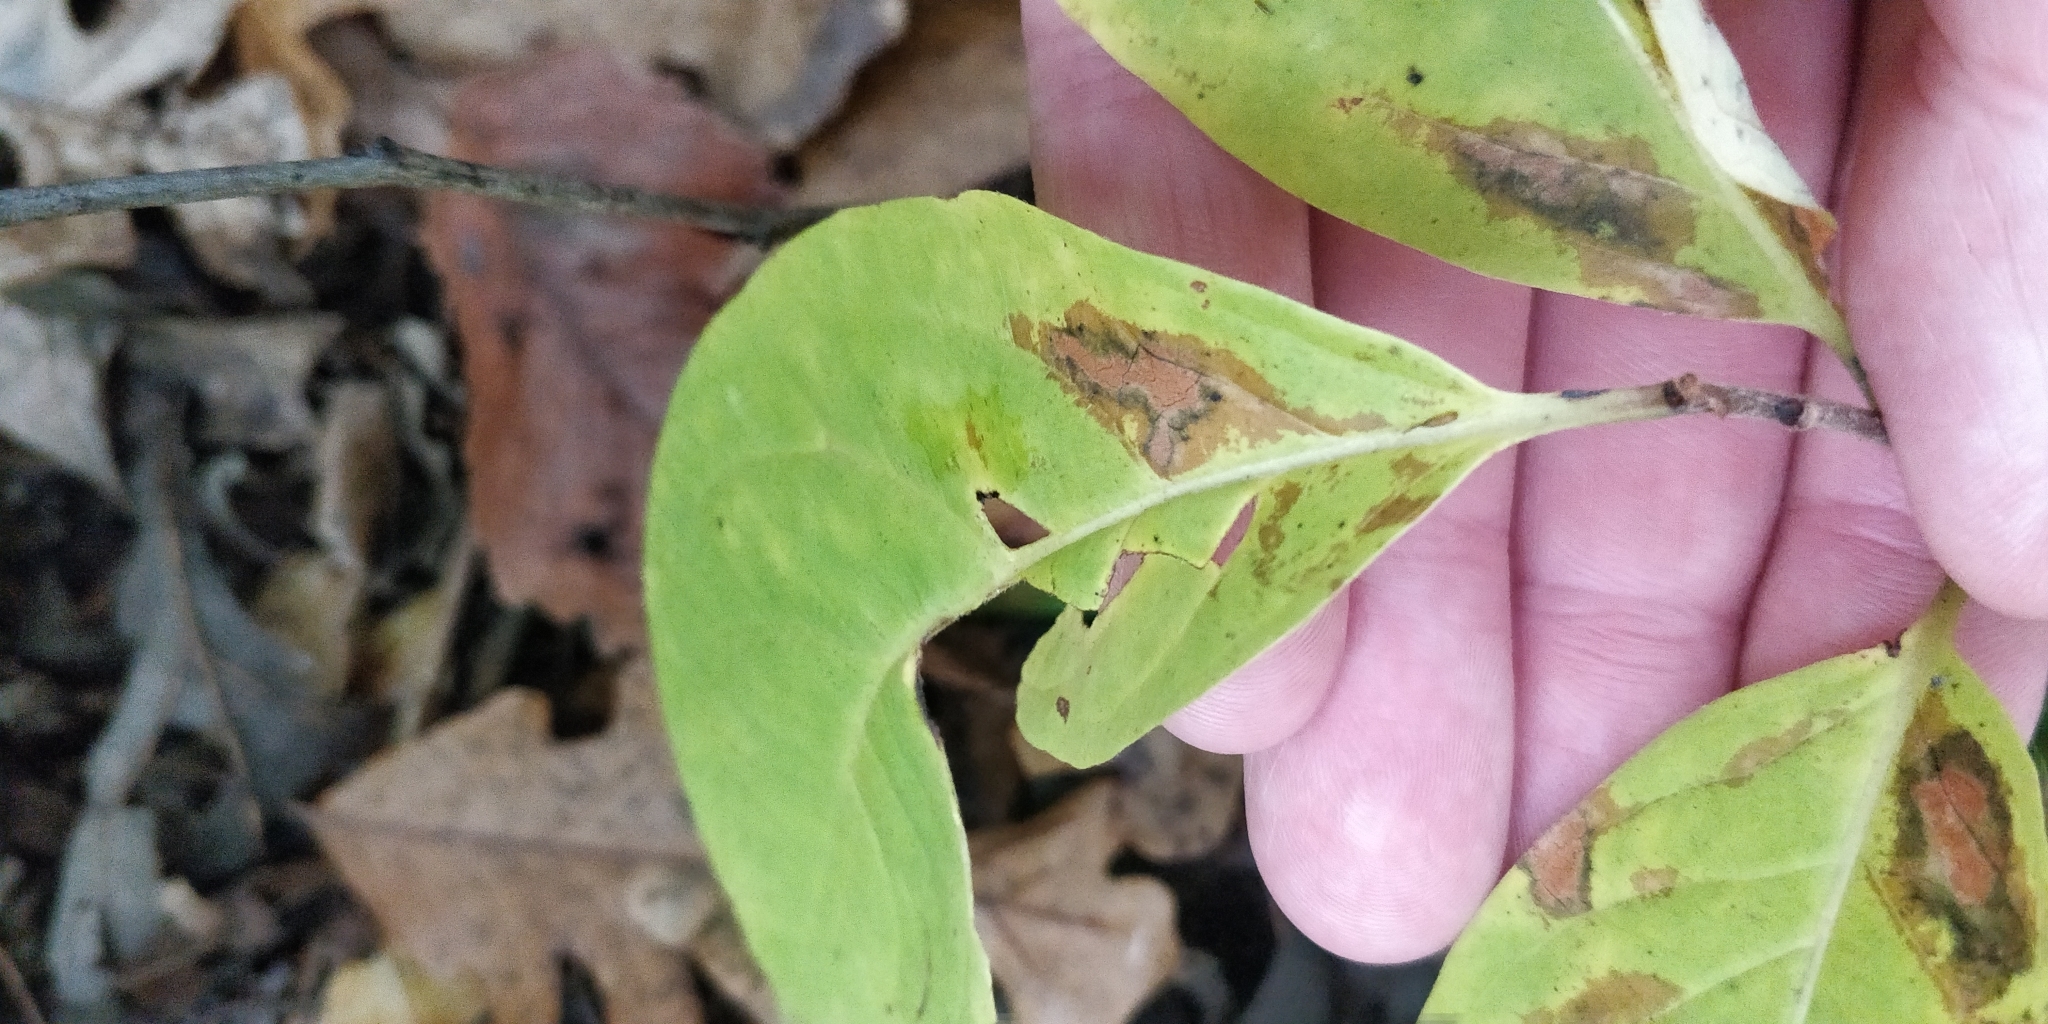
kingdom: Plantae
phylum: Tracheophyta
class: Magnoliopsida
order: Ericales
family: Ebenaceae
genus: Diospyros
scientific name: Diospyros virginiana
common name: Persimmon
